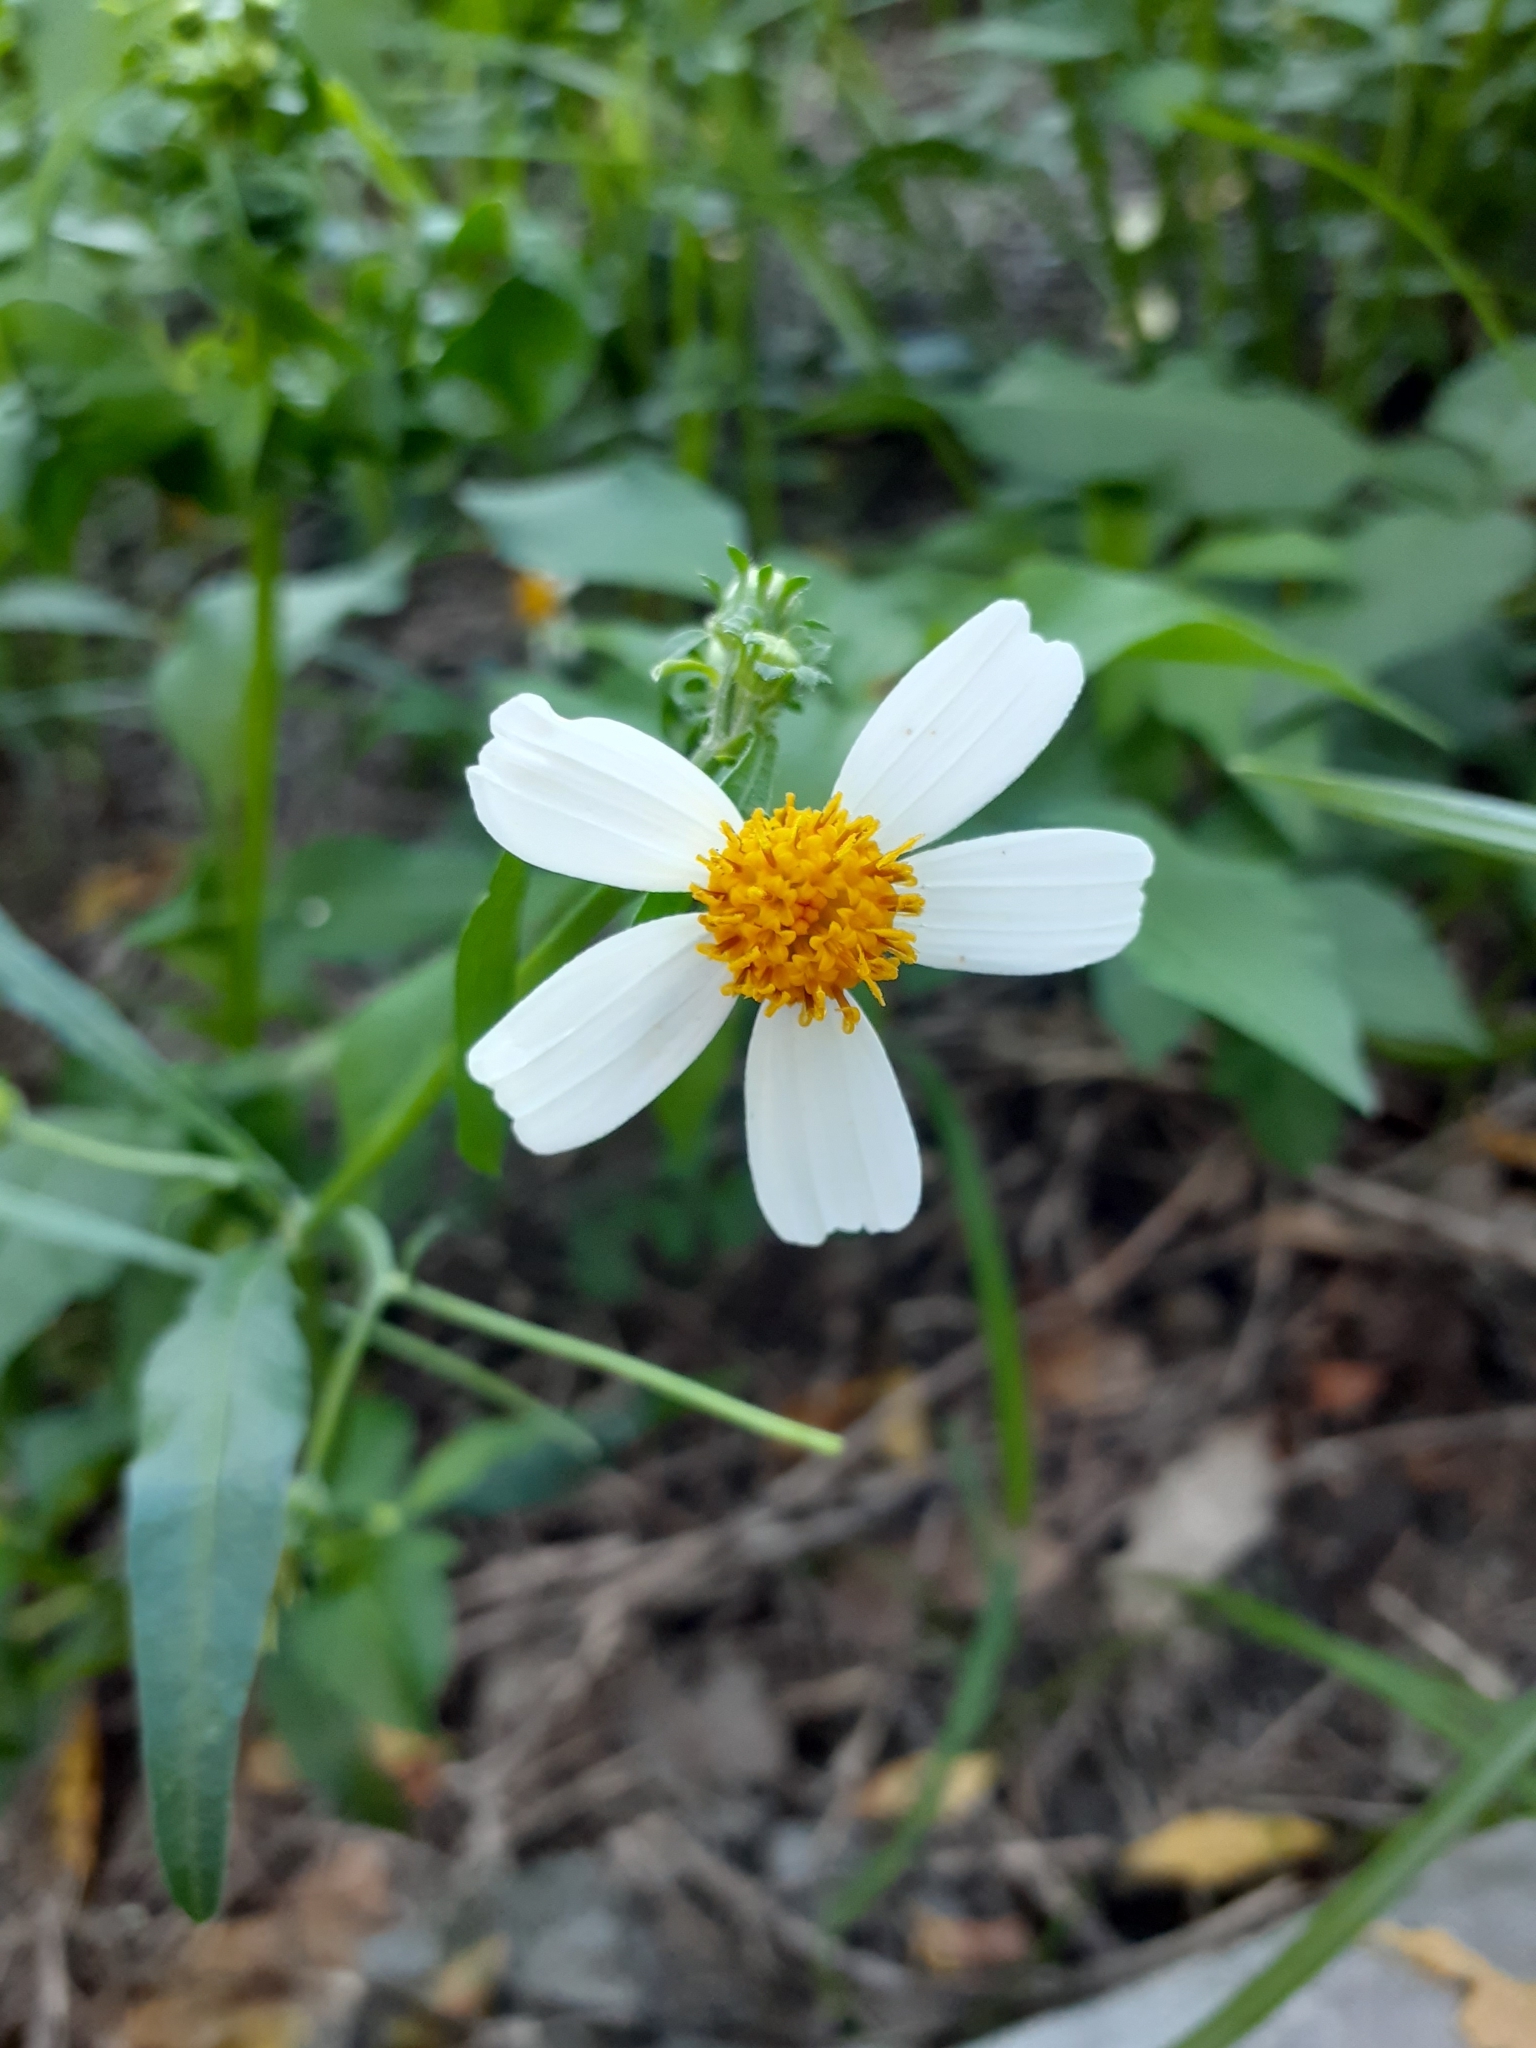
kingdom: Plantae
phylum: Tracheophyta
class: Magnoliopsida
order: Asterales
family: Asteraceae
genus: Bidens
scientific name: Bidens alba
